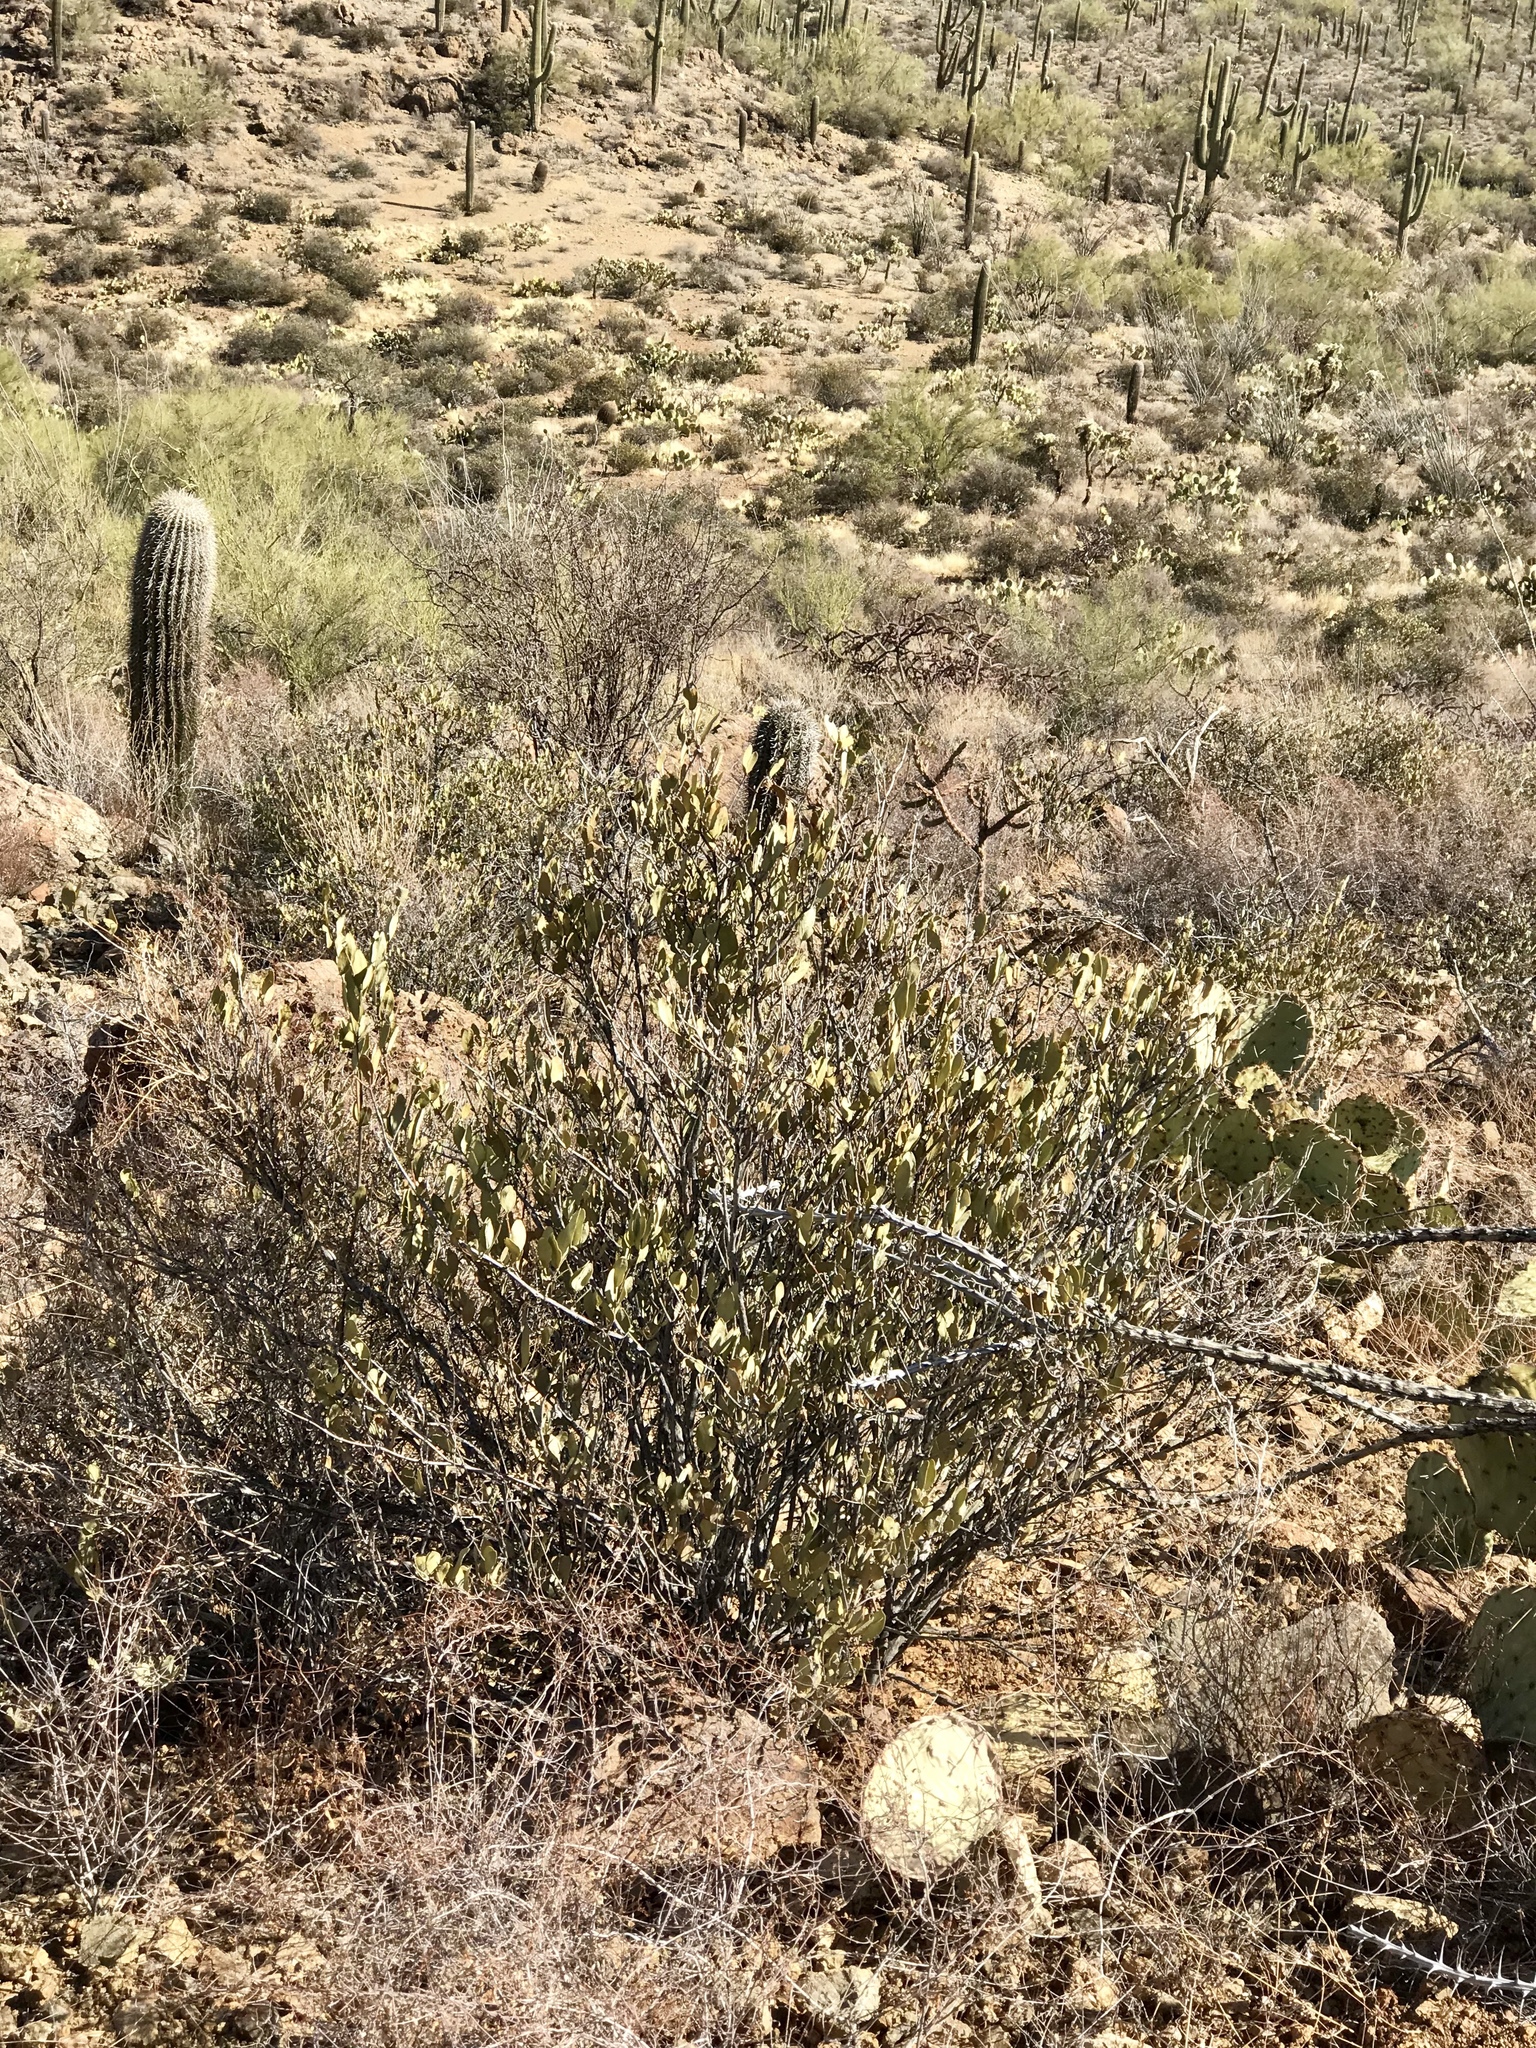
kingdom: Plantae
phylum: Tracheophyta
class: Magnoliopsida
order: Caryophyllales
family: Simmondsiaceae
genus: Simmondsia
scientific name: Simmondsia chinensis
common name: Jojoba
